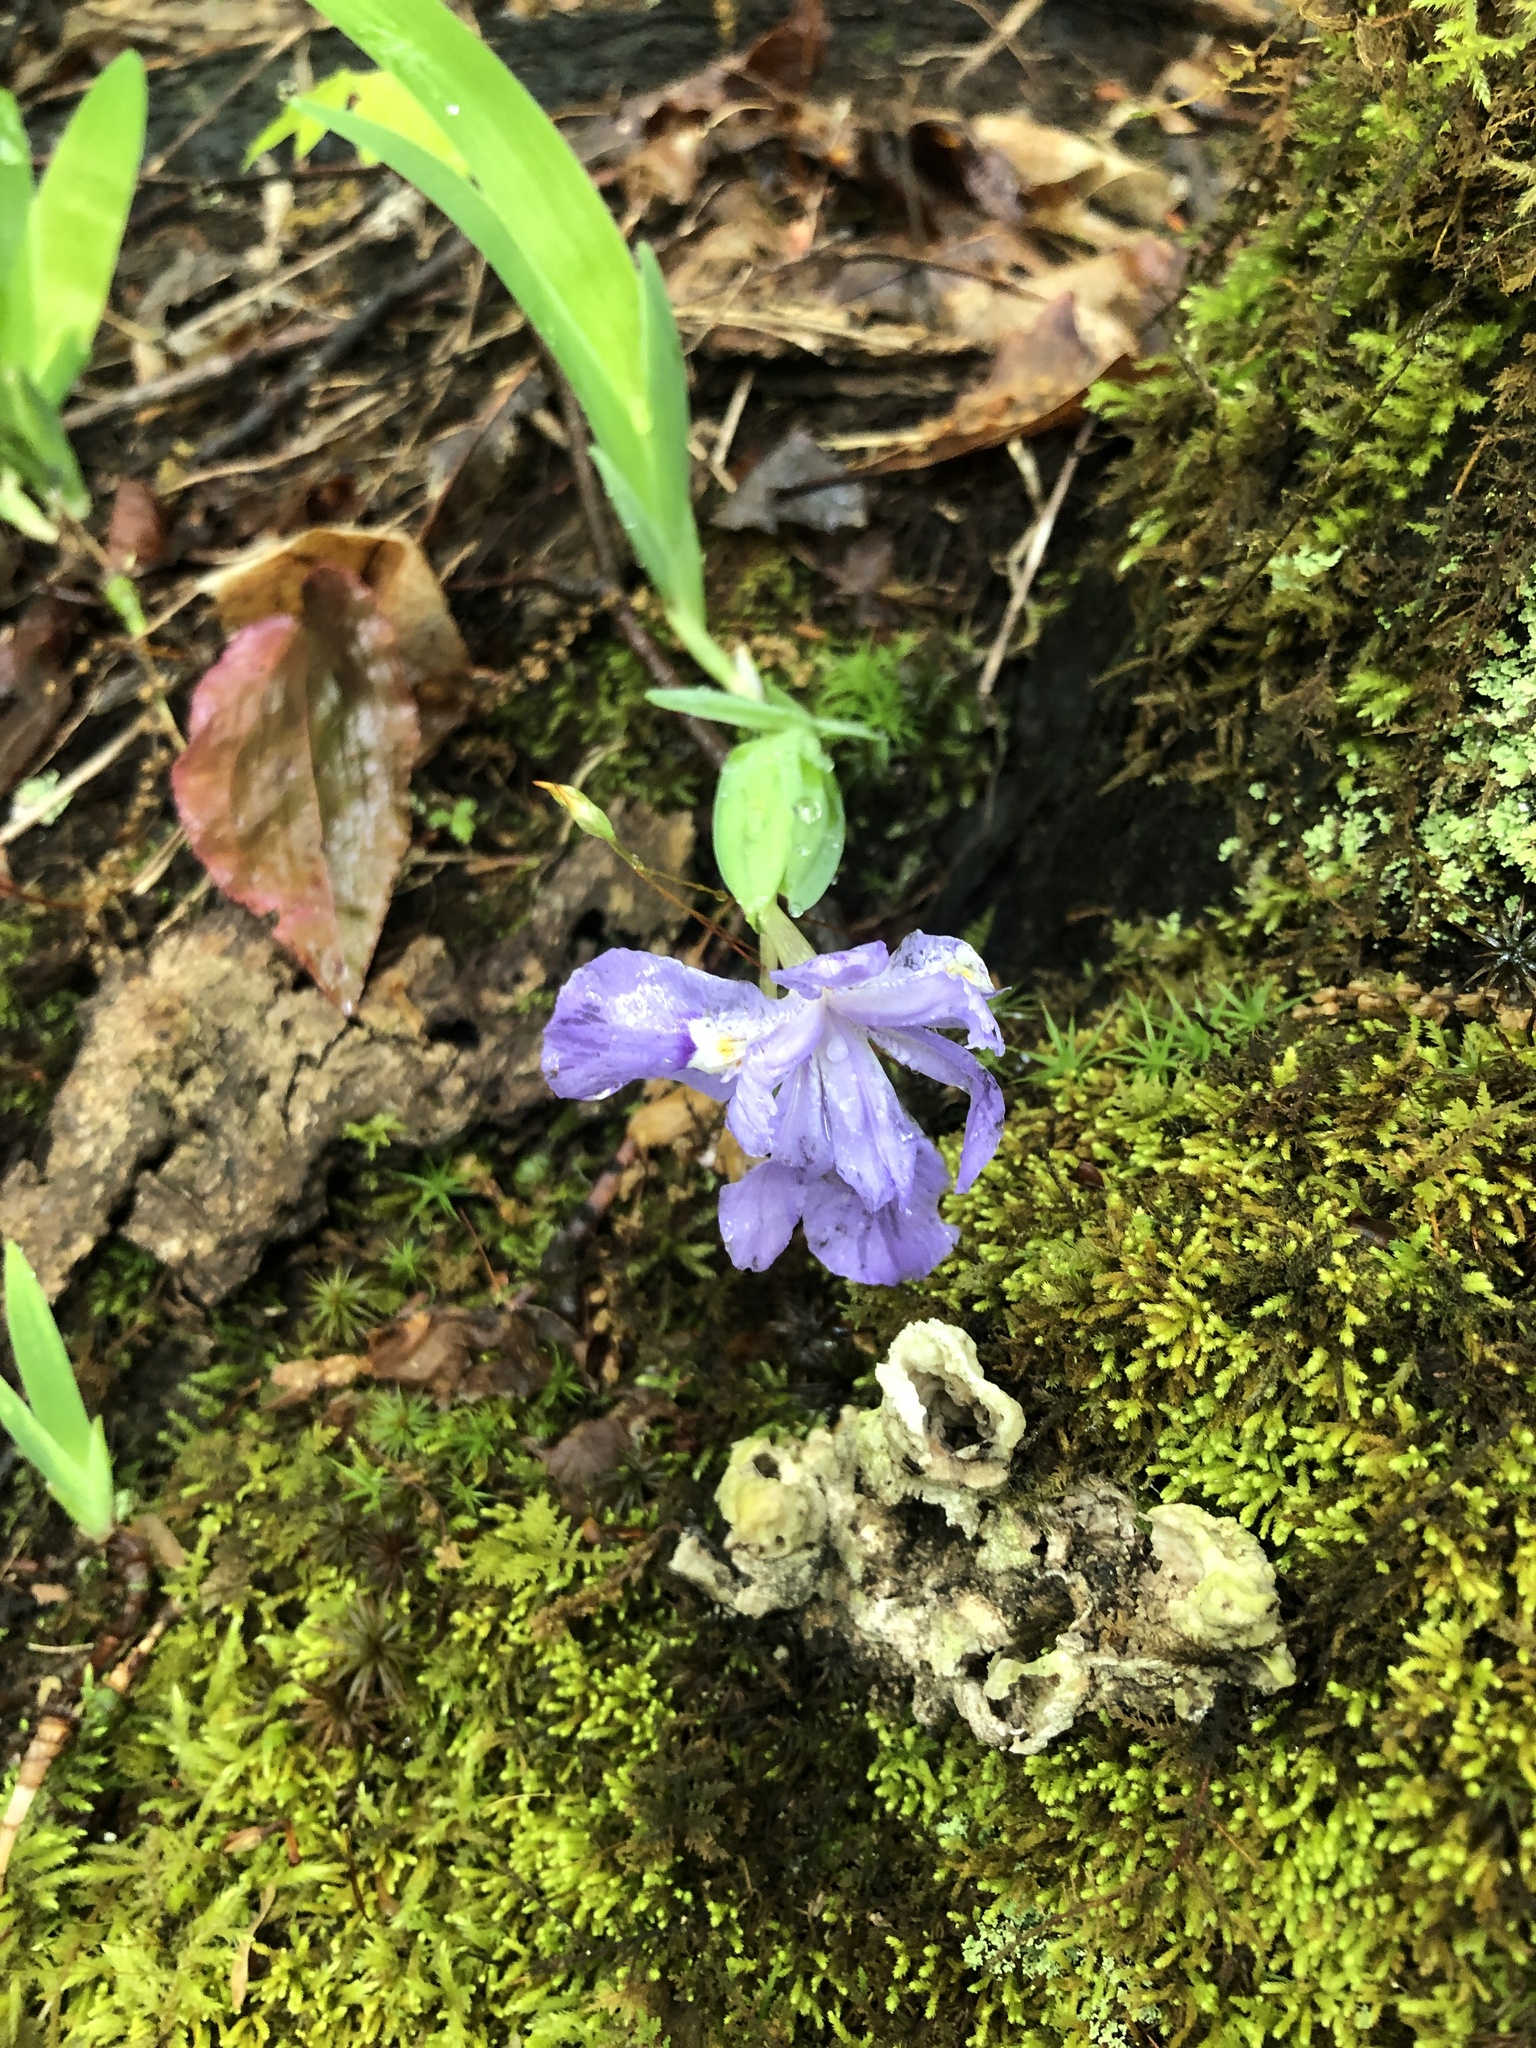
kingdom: Plantae
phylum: Tracheophyta
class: Liliopsida
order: Asparagales
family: Iridaceae
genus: Iris
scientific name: Iris cristata
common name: Crested iris
